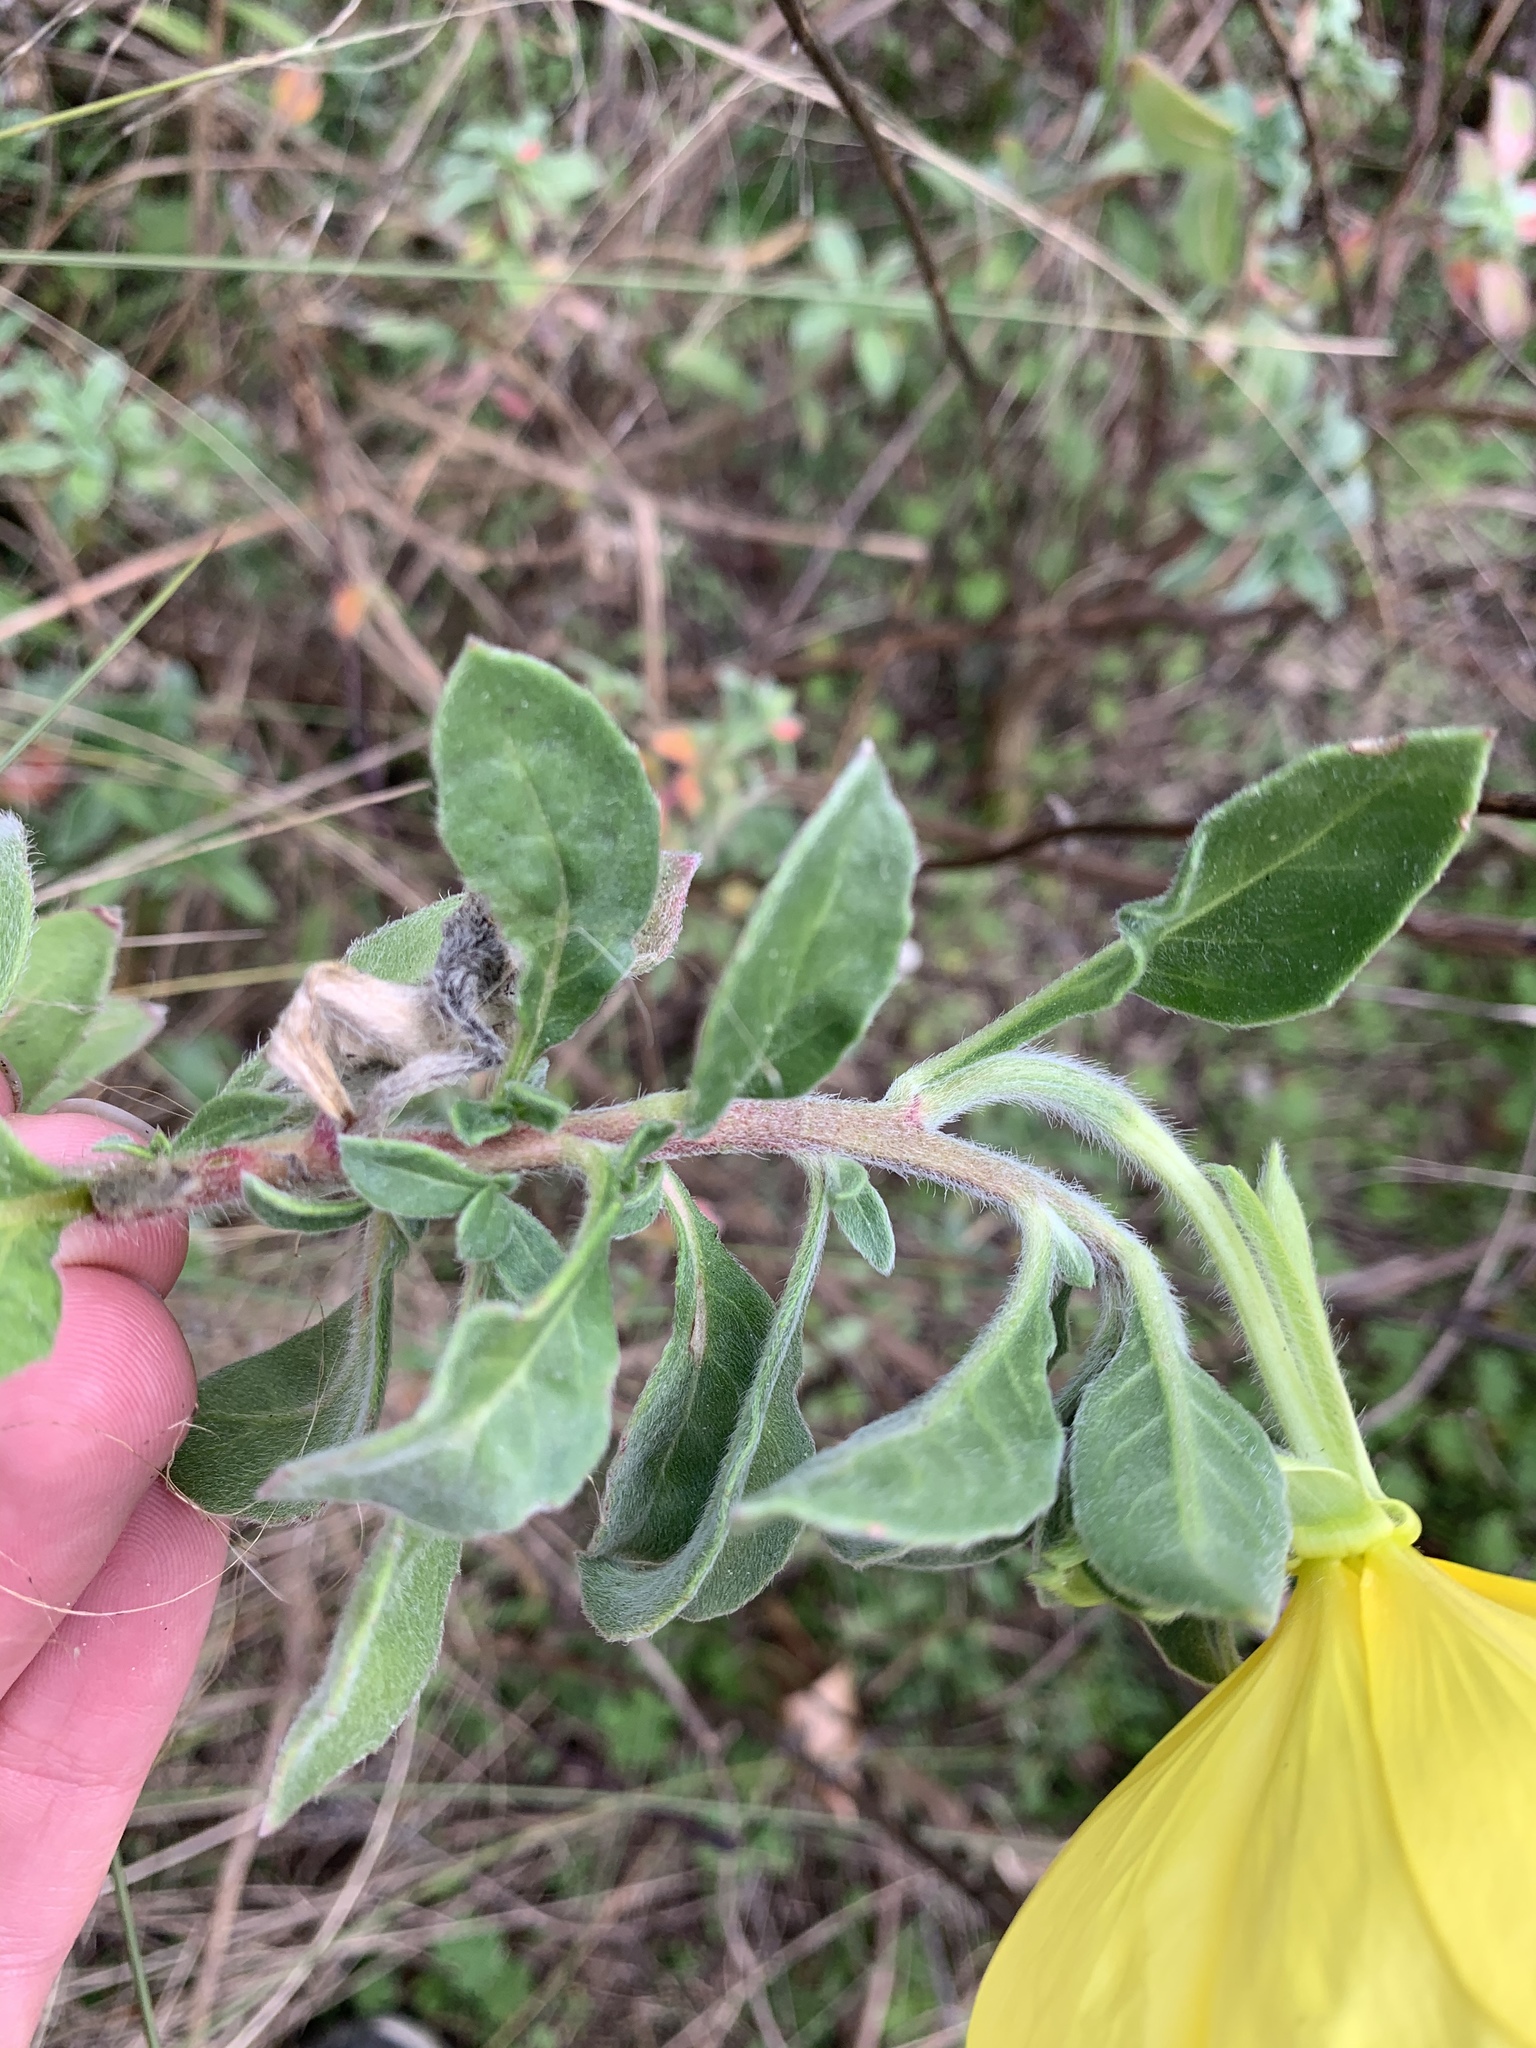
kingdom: Plantae
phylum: Tracheophyta
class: Magnoliopsida
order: Myrtales
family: Onagraceae
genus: Oenothera
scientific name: Oenothera drummondii
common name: Beach evening-primrose
